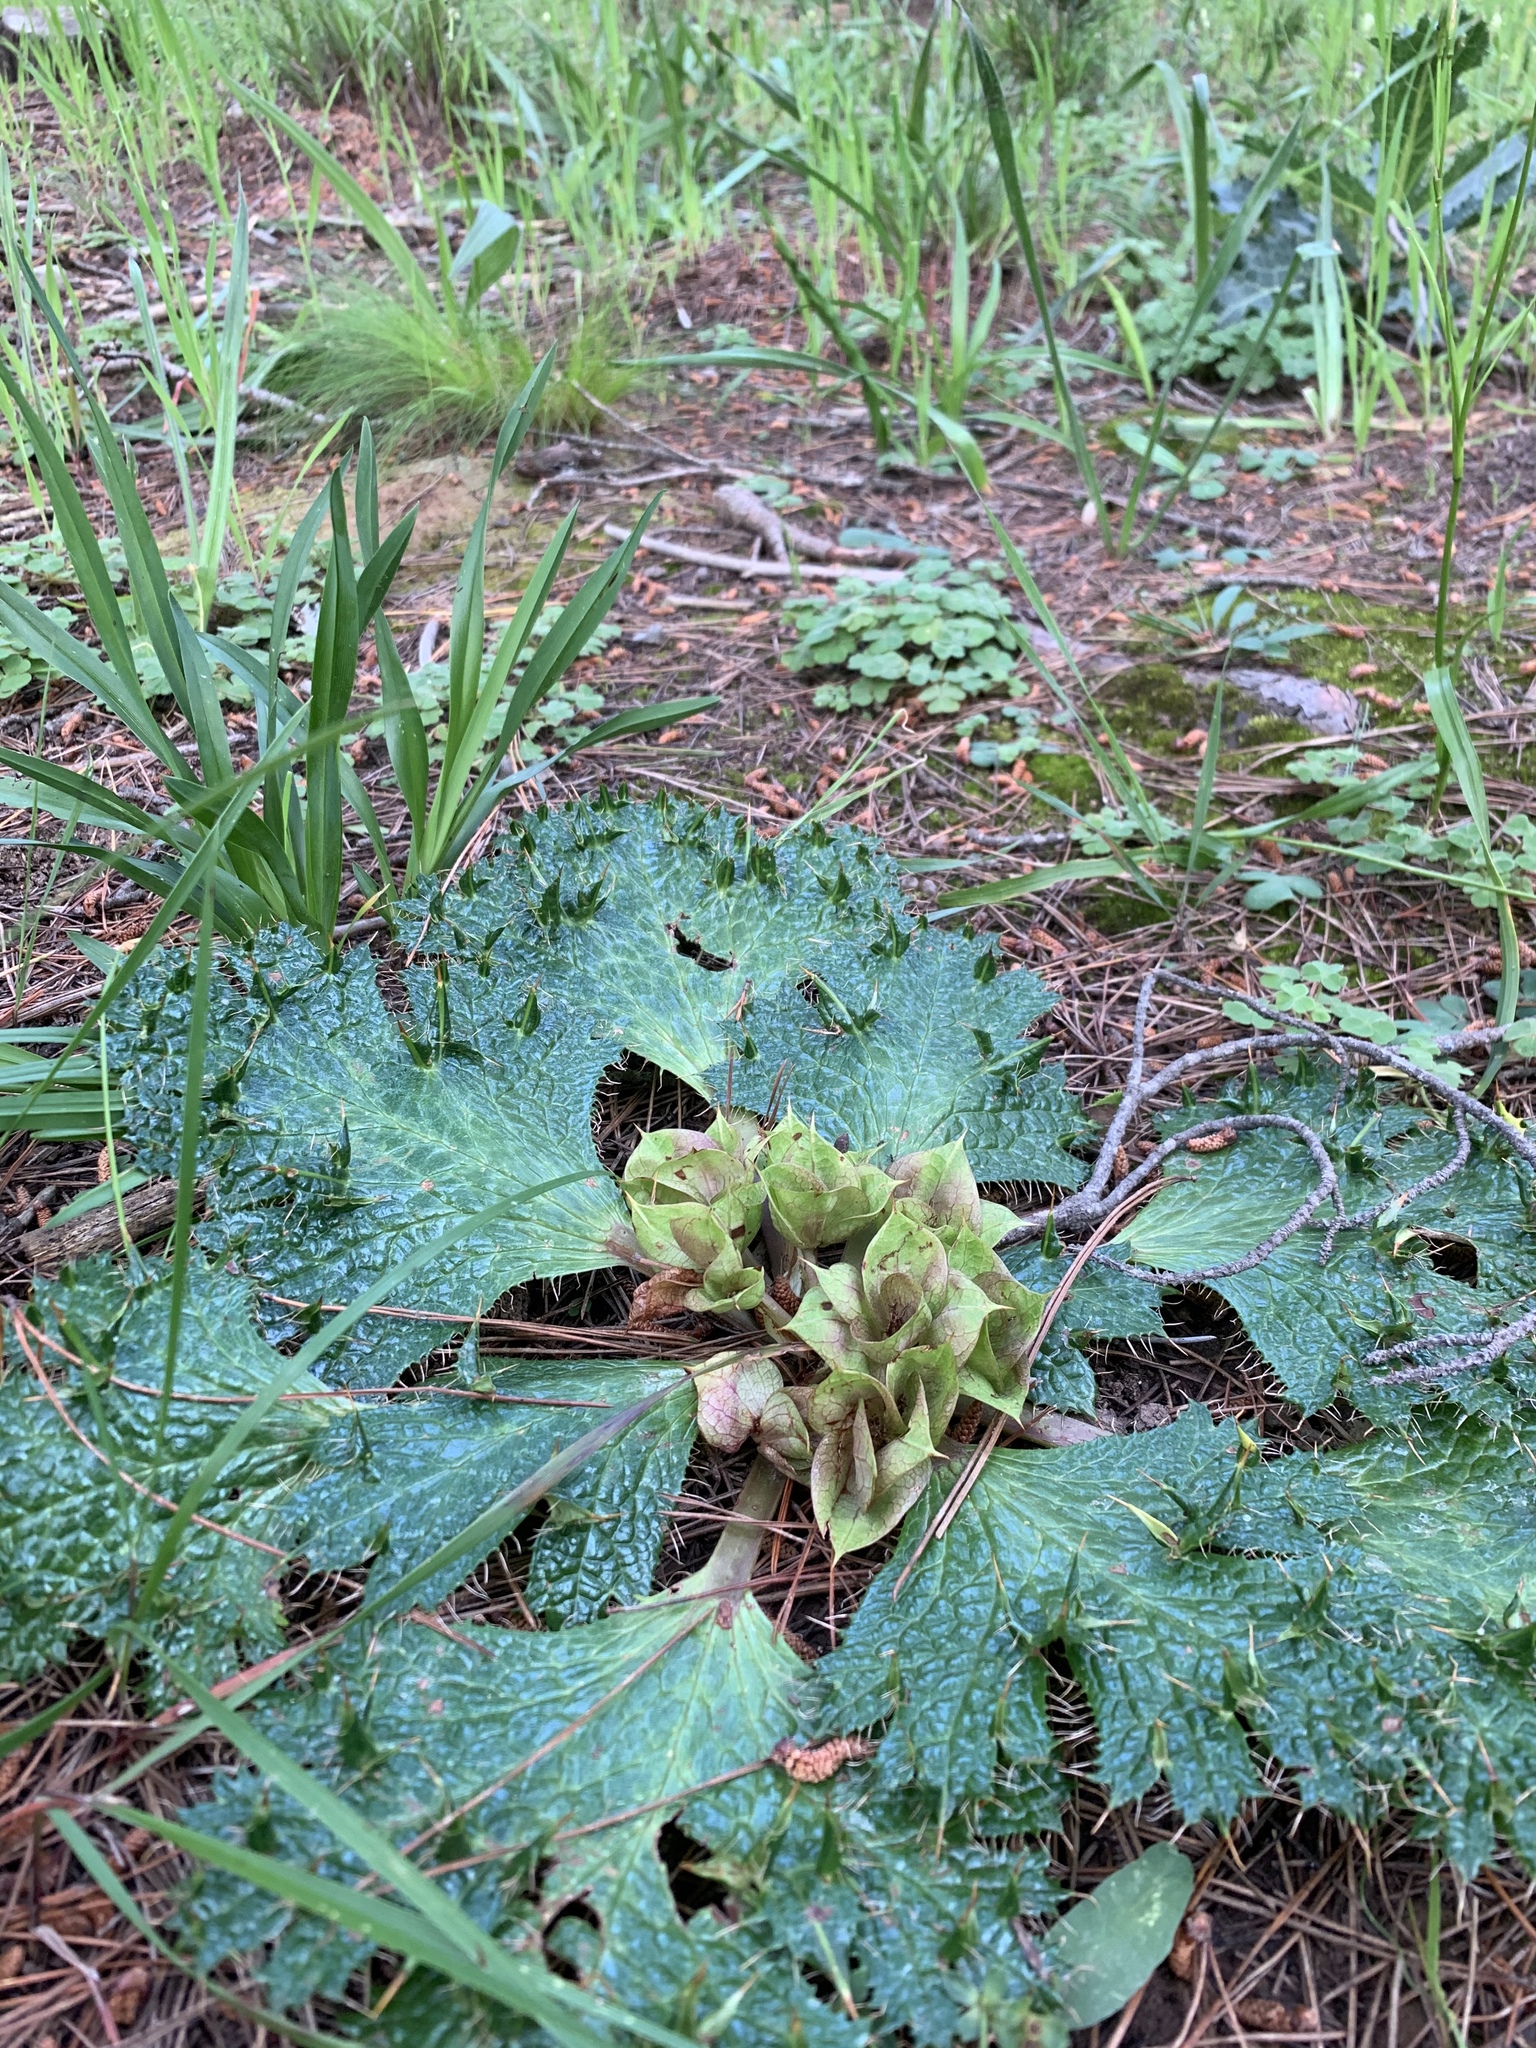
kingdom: Plantae
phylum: Tracheophyta
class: Magnoliopsida
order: Apiales
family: Apiaceae
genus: Arctopus
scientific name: Arctopus monacanthus
